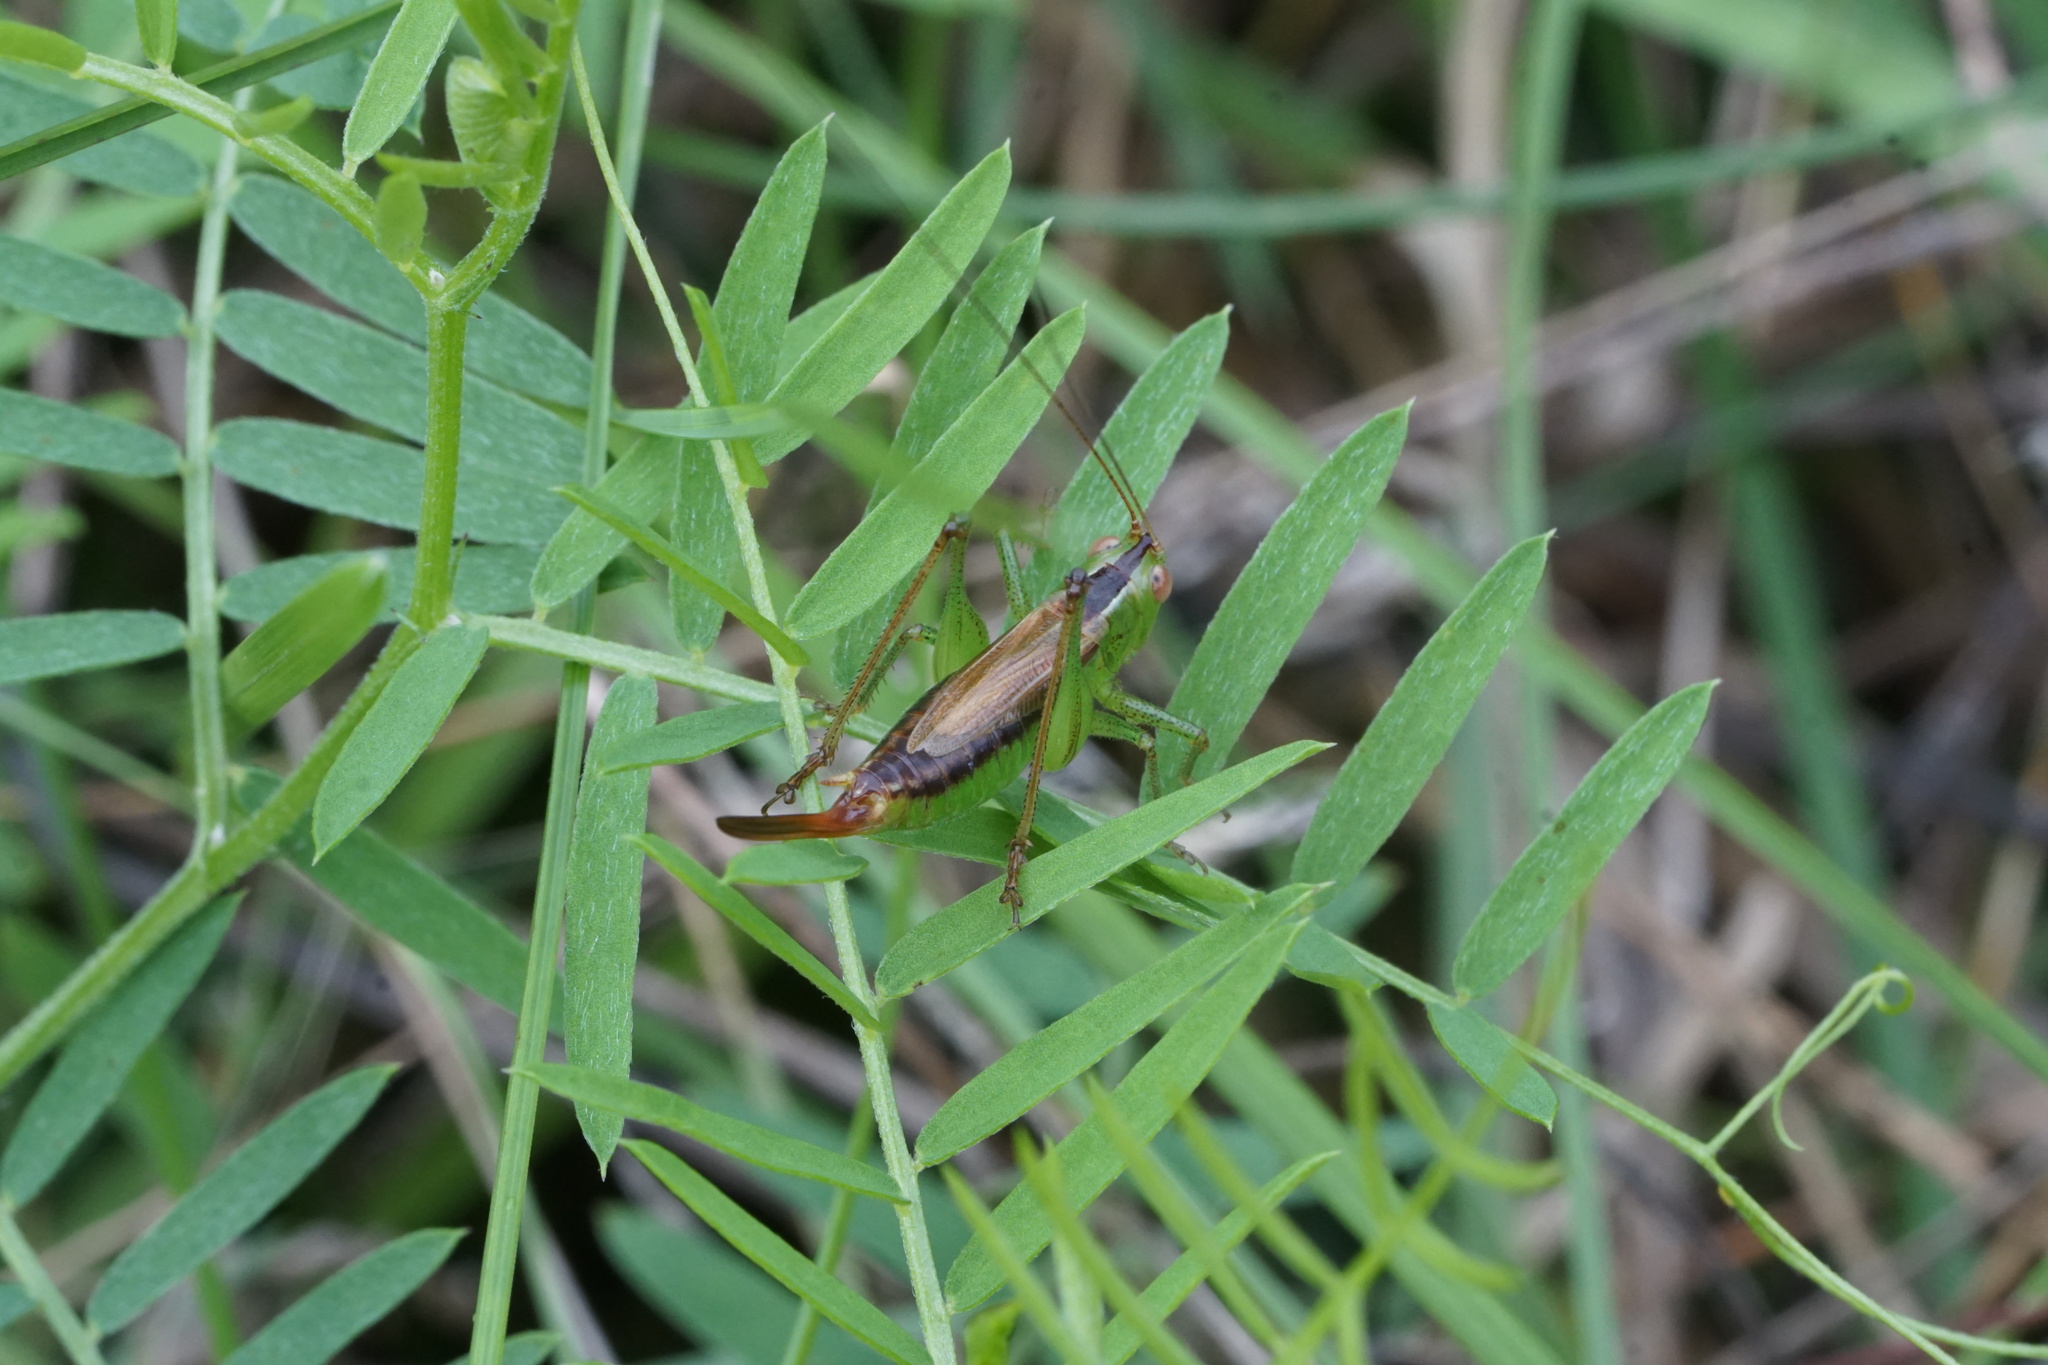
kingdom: Animalia
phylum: Arthropoda
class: Insecta
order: Orthoptera
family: Tettigoniidae
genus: Conocephalus
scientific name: Conocephalus brevipennis
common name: Short-winged meadow katydid
